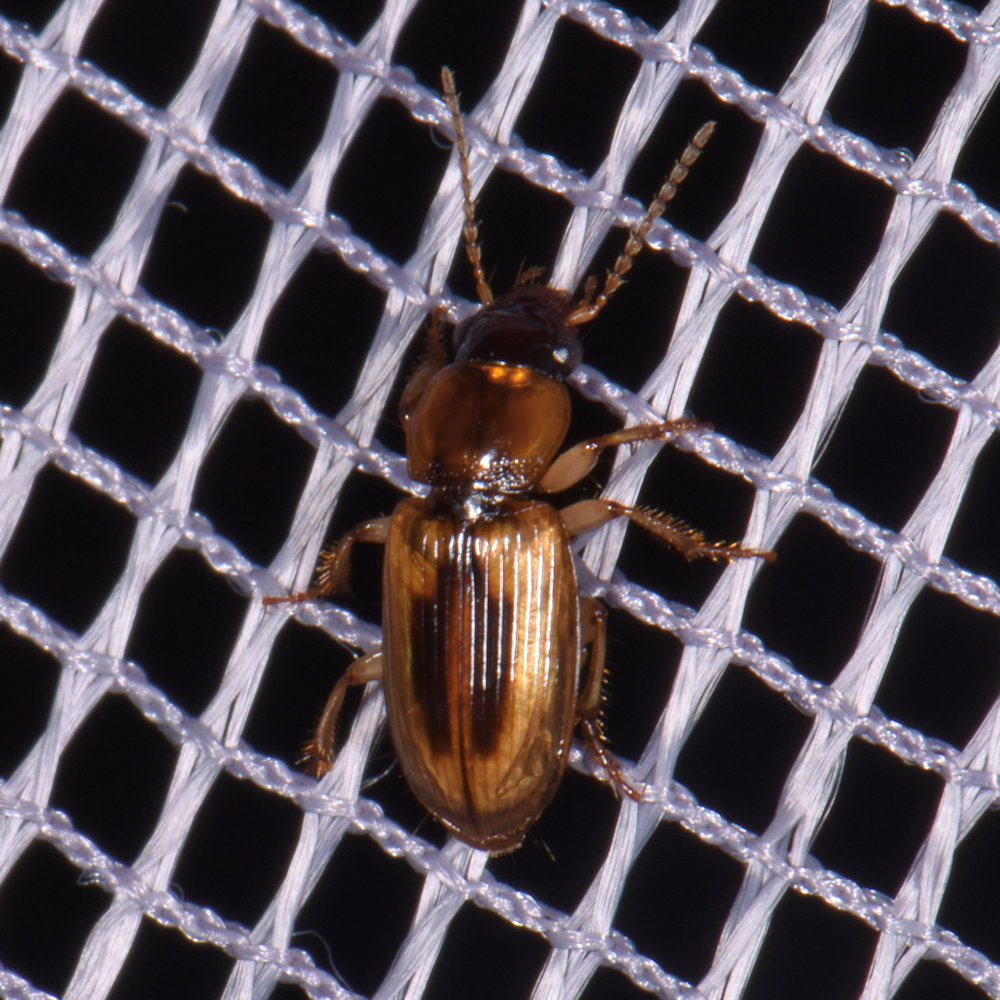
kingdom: Animalia
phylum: Arthropoda
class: Insecta
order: Coleoptera
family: Carabidae
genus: Stenolophus
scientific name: Stenolophus lecontei
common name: Leconte's seedcorn beetle
